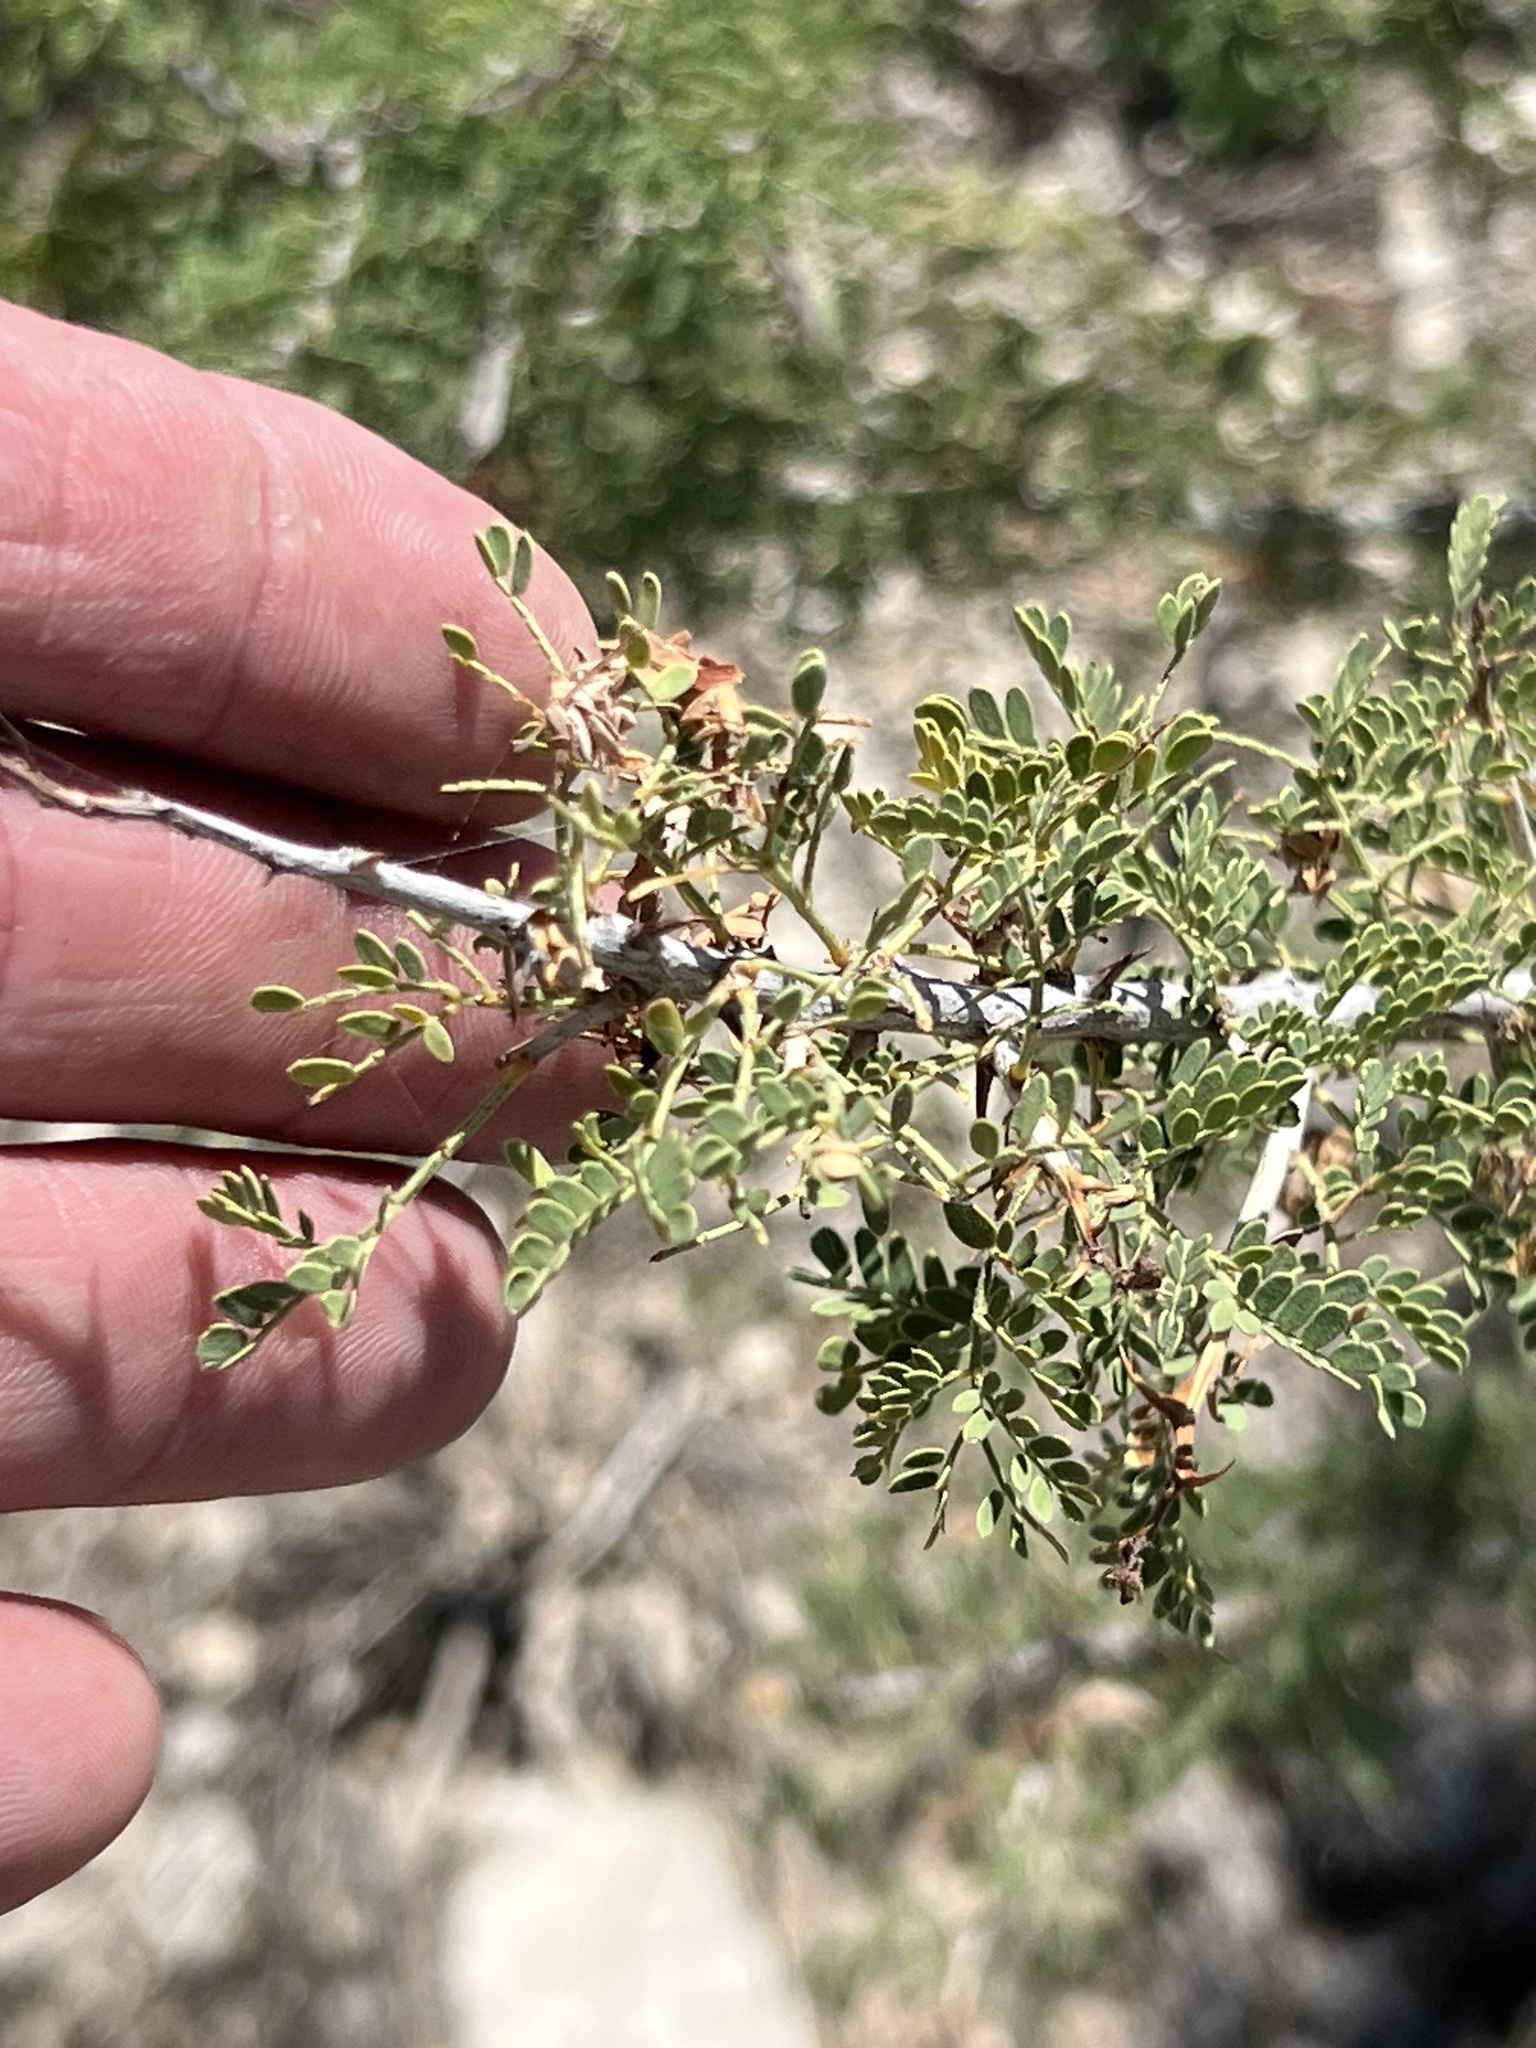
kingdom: Plantae
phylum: Tracheophyta
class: Magnoliopsida
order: Fabales
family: Fabaceae
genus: Senegalia
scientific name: Senegalia greggii
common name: Texas-mimosa
